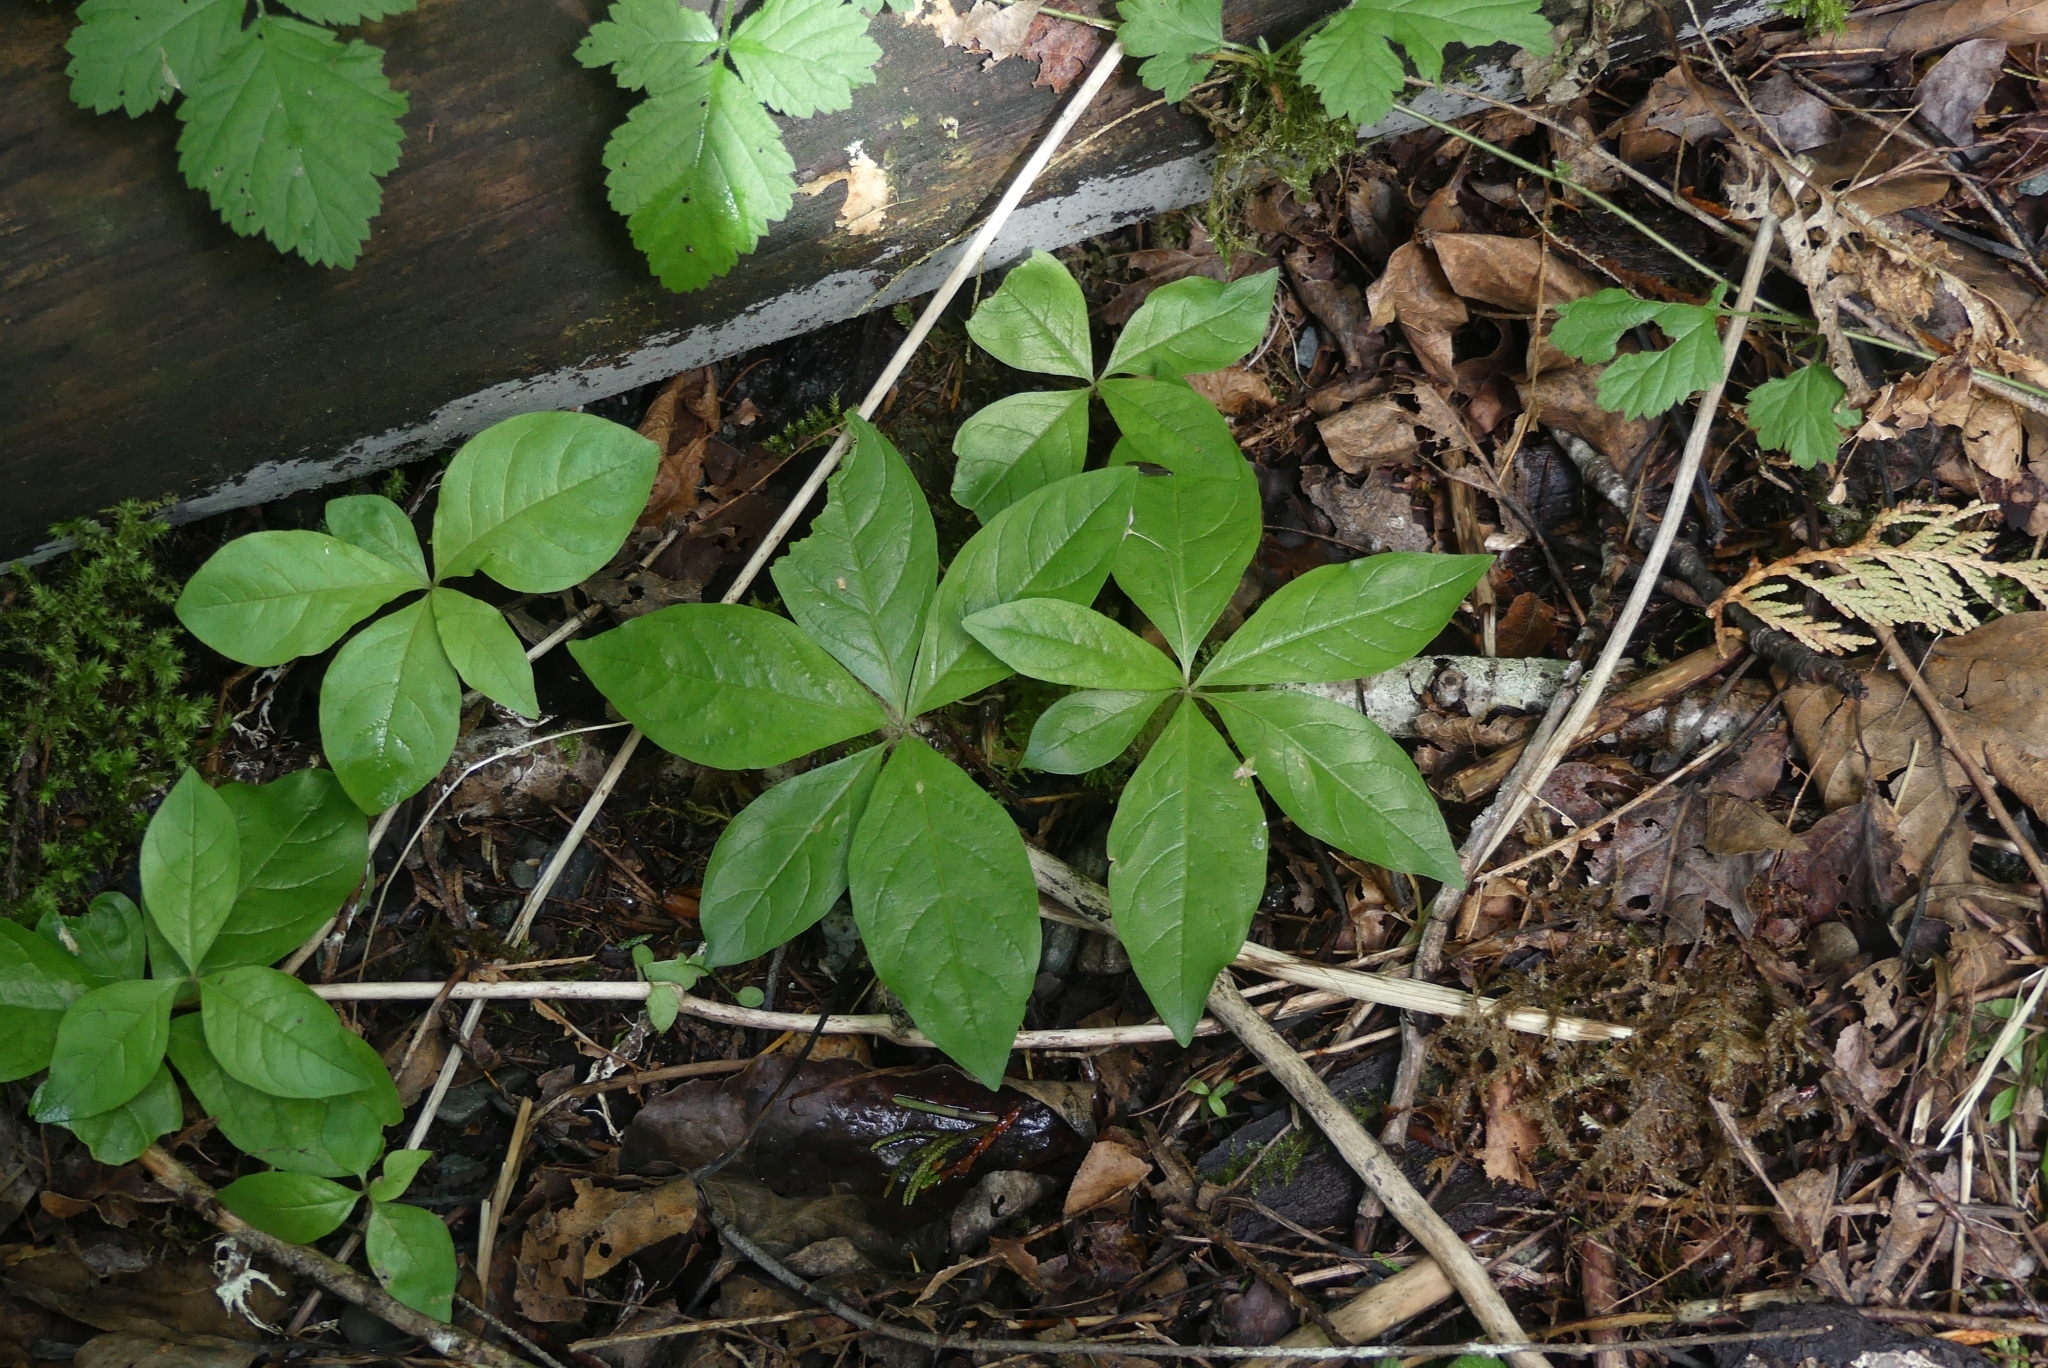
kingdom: Plantae
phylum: Tracheophyta
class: Magnoliopsida
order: Ericales
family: Primulaceae
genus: Lysimachia
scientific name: Lysimachia latifolia
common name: Pacific starflower
